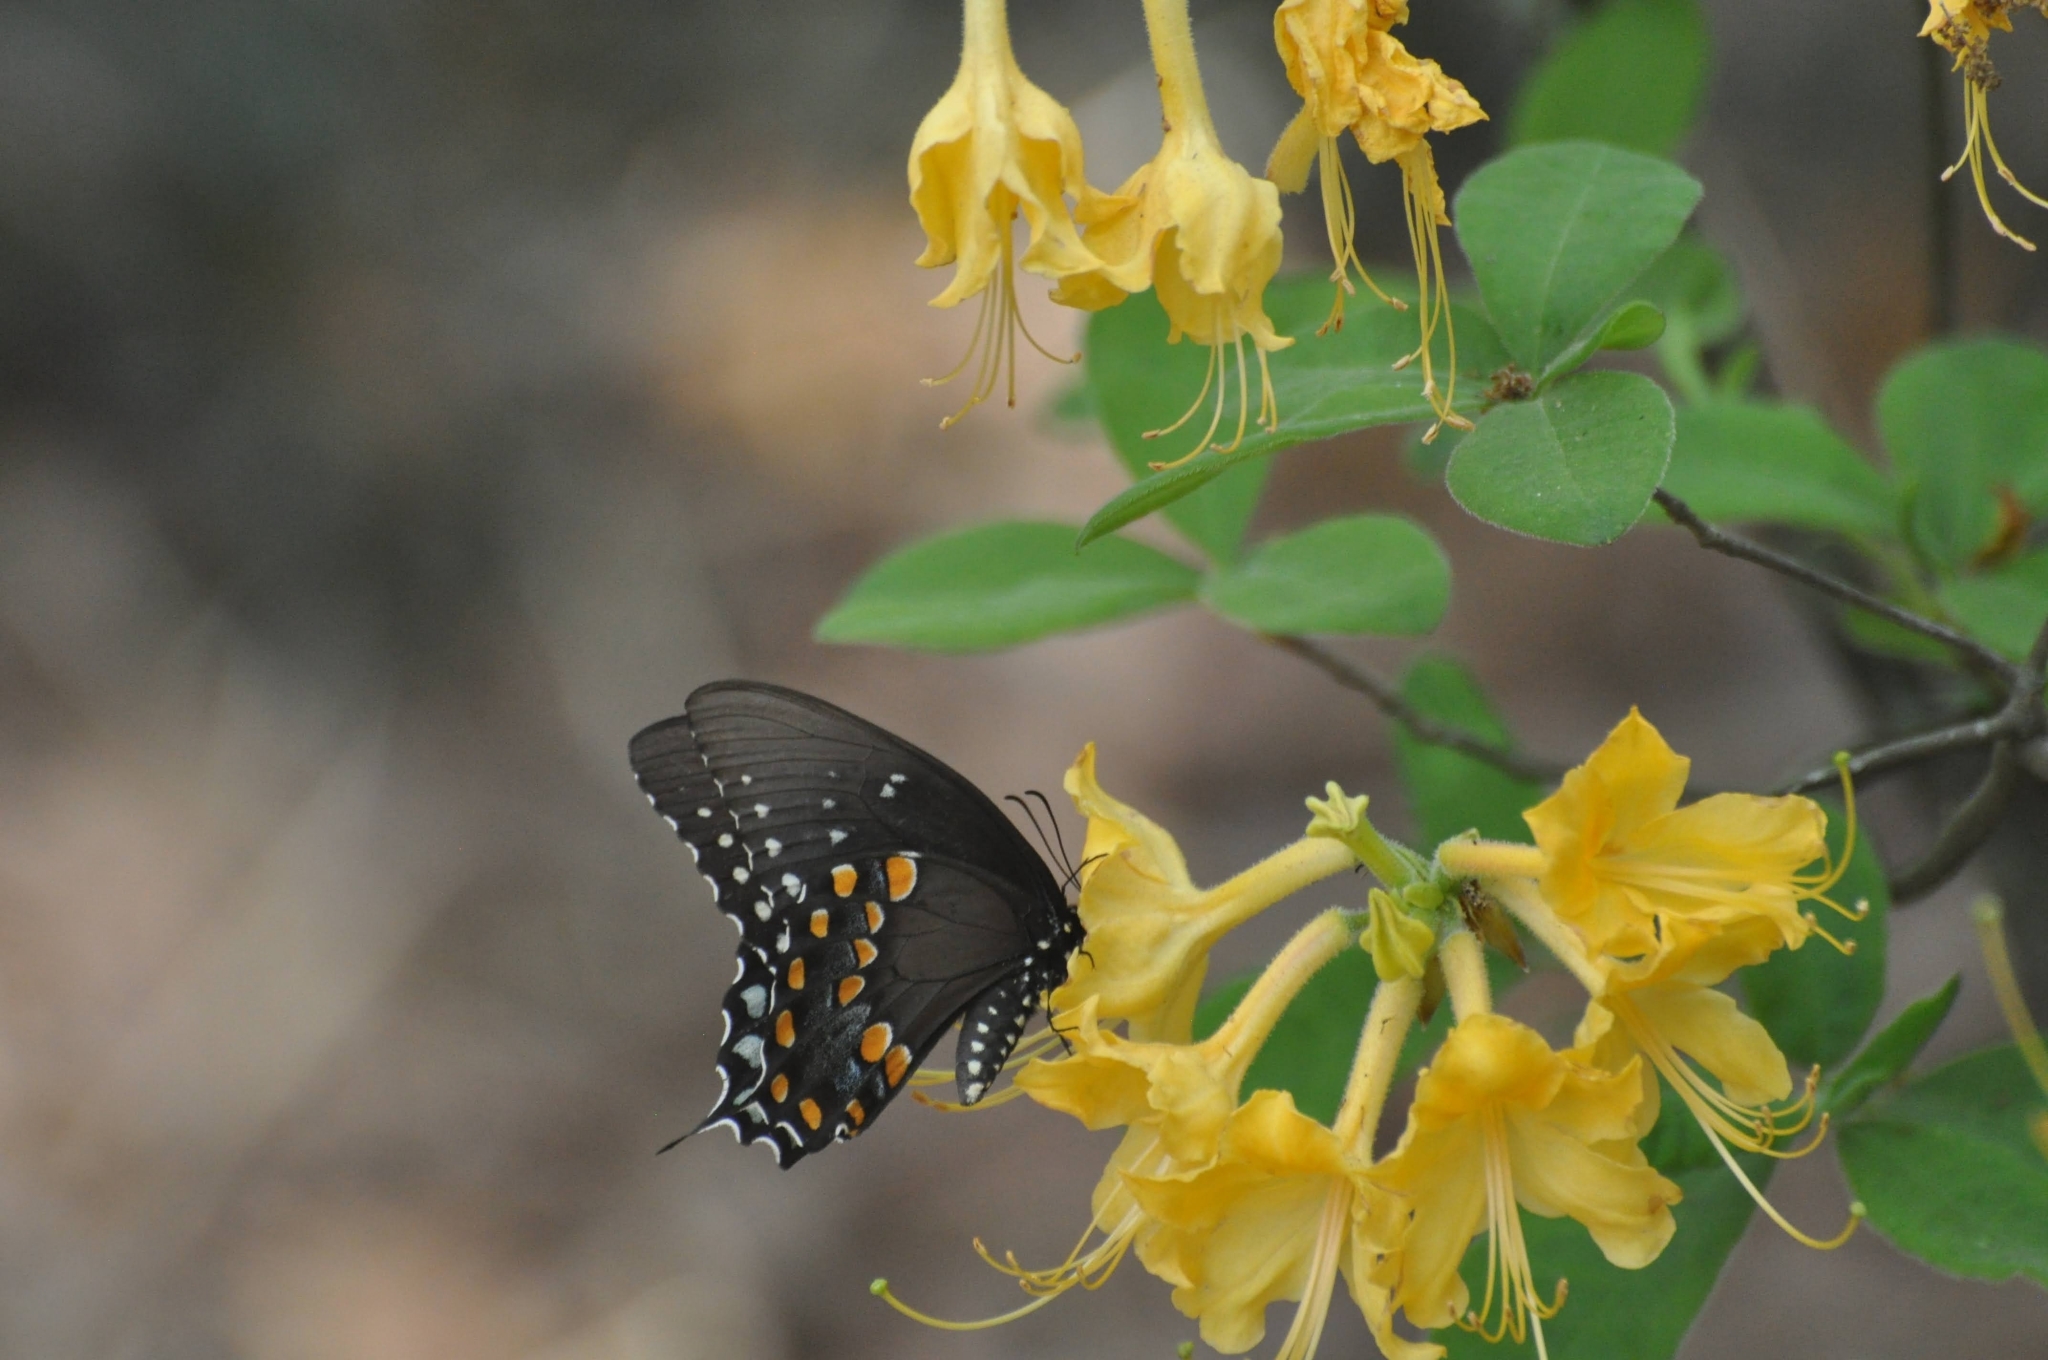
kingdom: Animalia
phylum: Arthropoda
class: Insecta
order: Lepidoptera
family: Papilionidae
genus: Papilio
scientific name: Papilio troilus
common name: Spicebush swallowtail
